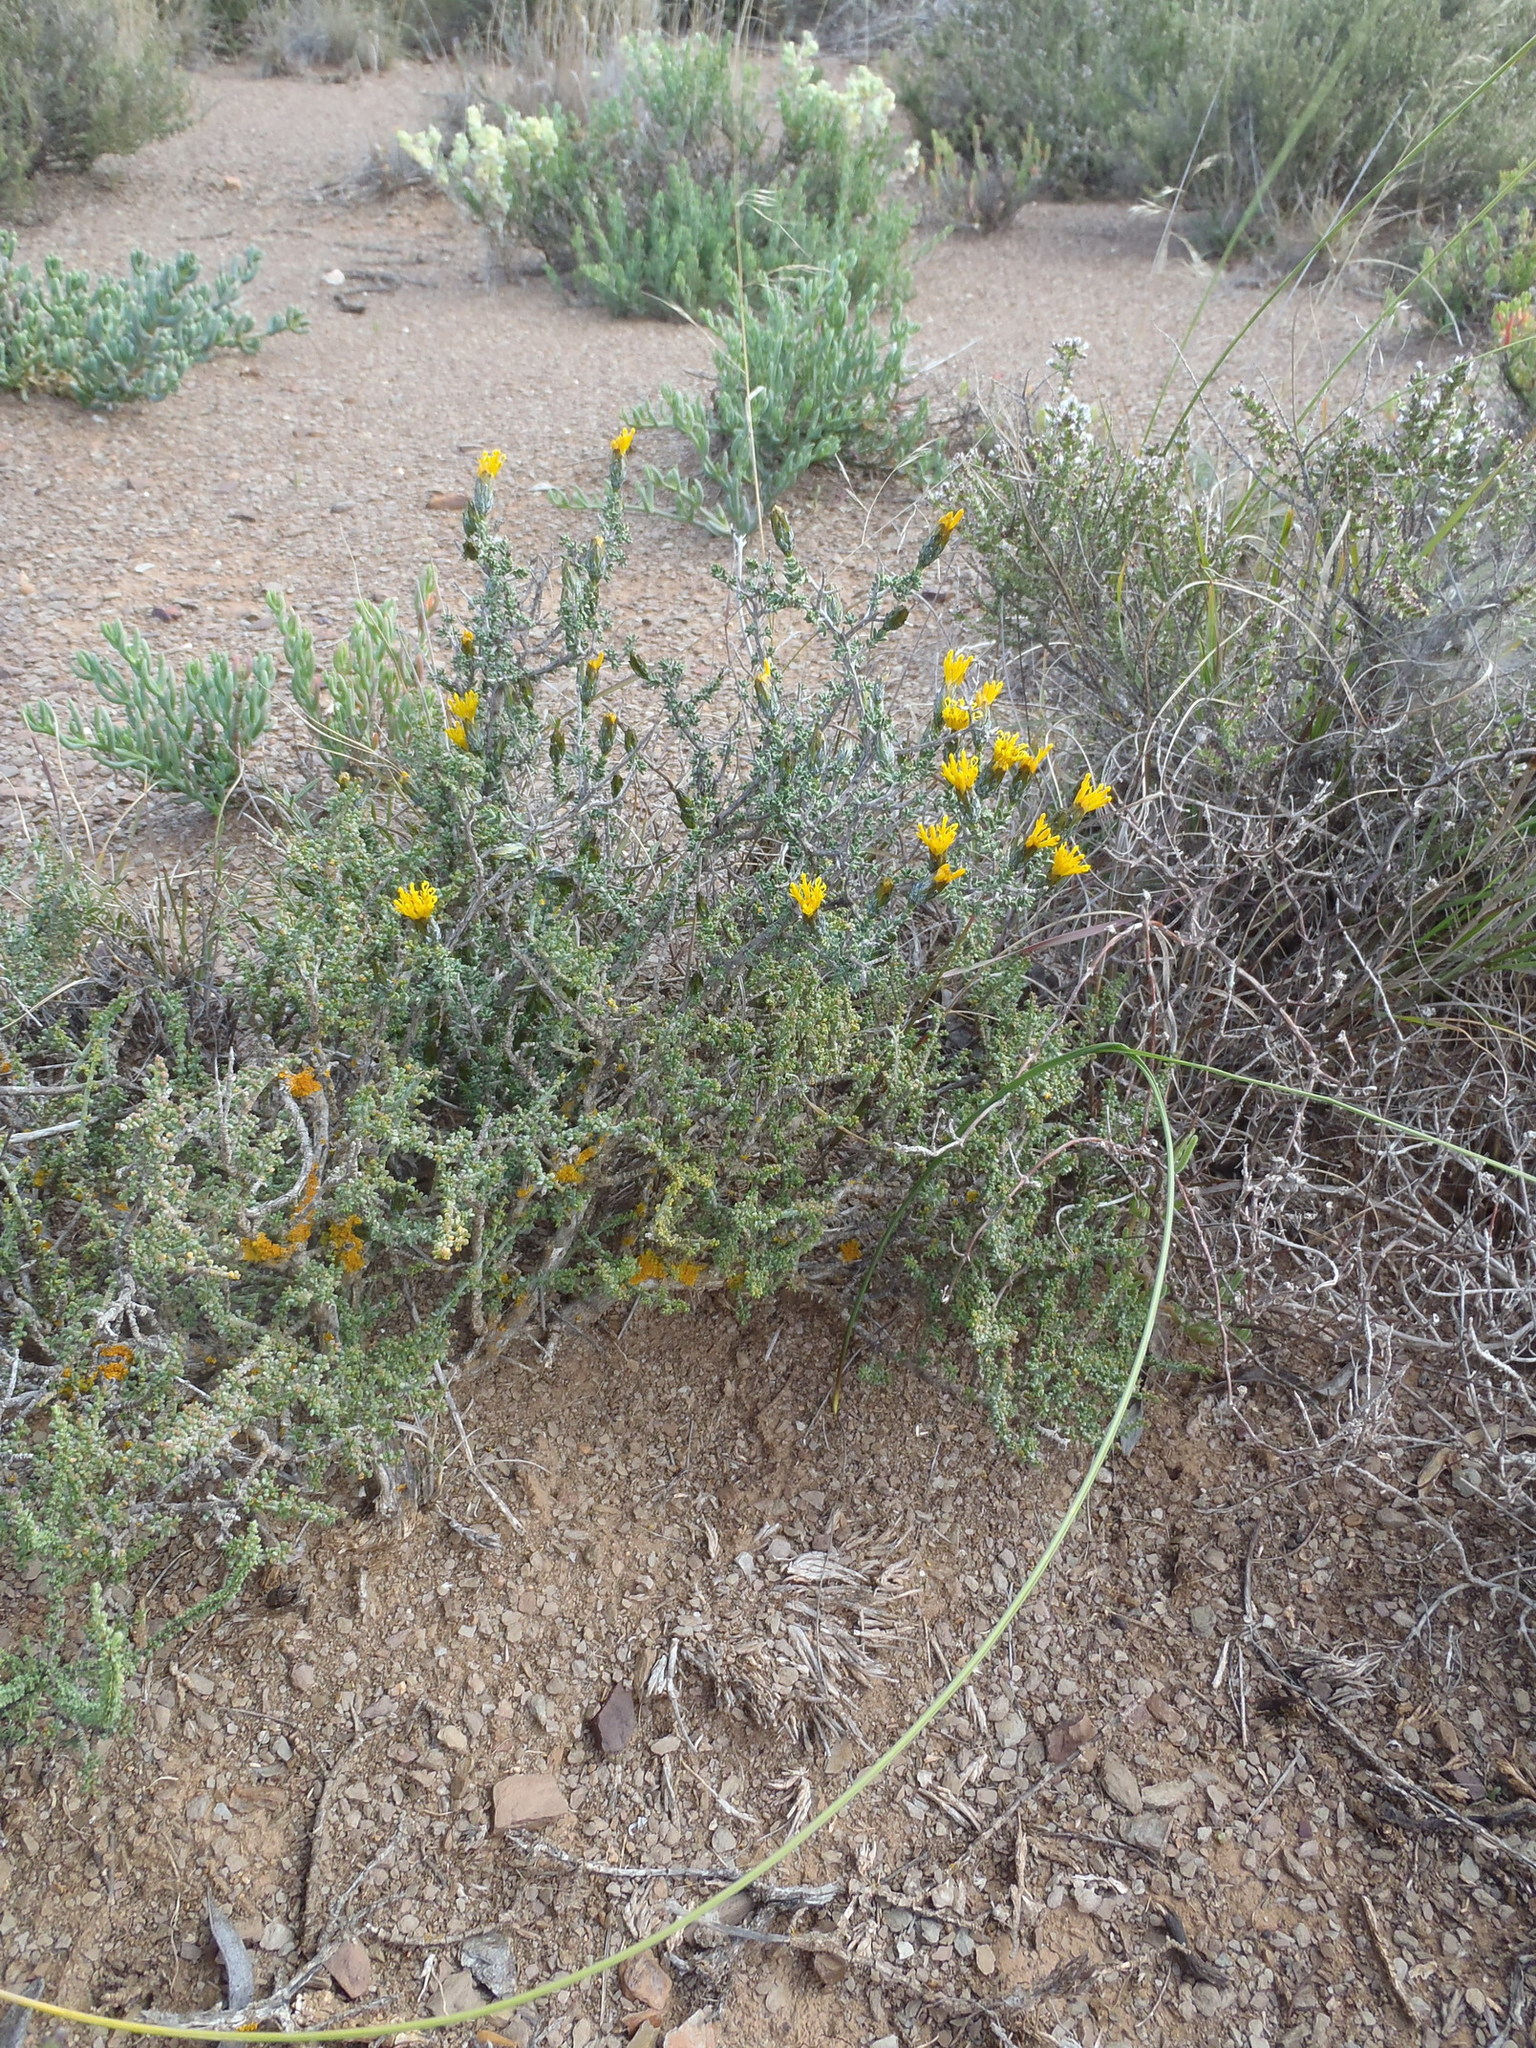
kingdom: Plantae
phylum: Tracheophyta
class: Magnoliopsida
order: Asterales
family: Asteraceae
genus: Pteronia
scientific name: Pteronia glomerata
